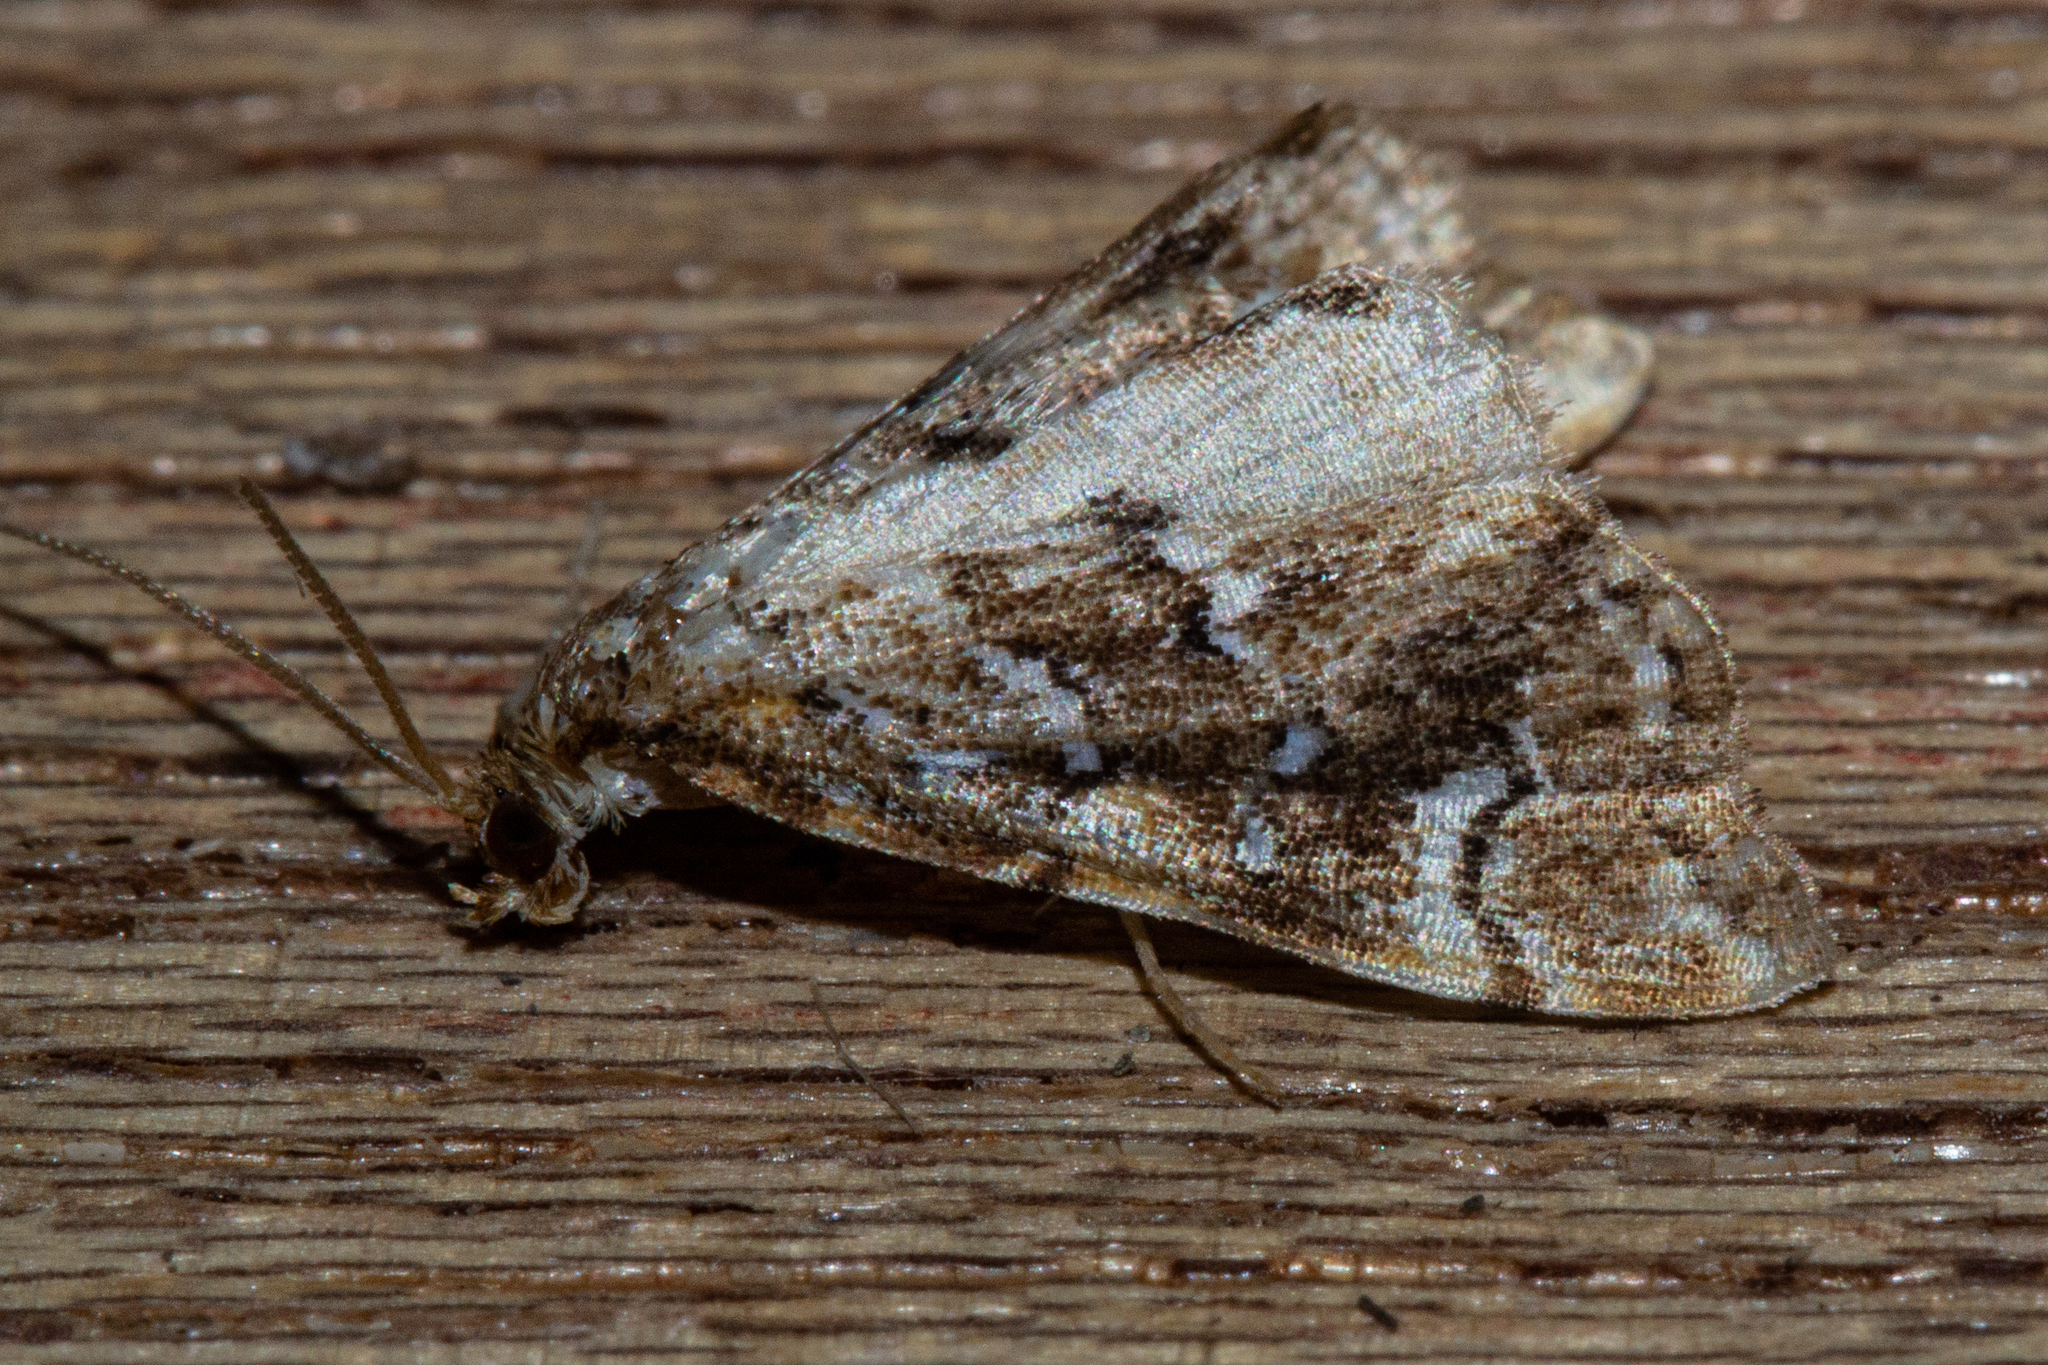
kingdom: Animalia
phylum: Arthropoda
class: Insecta
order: Lepidoptera
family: Pyralidae
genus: Musotima
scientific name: Musotima nitidalis
